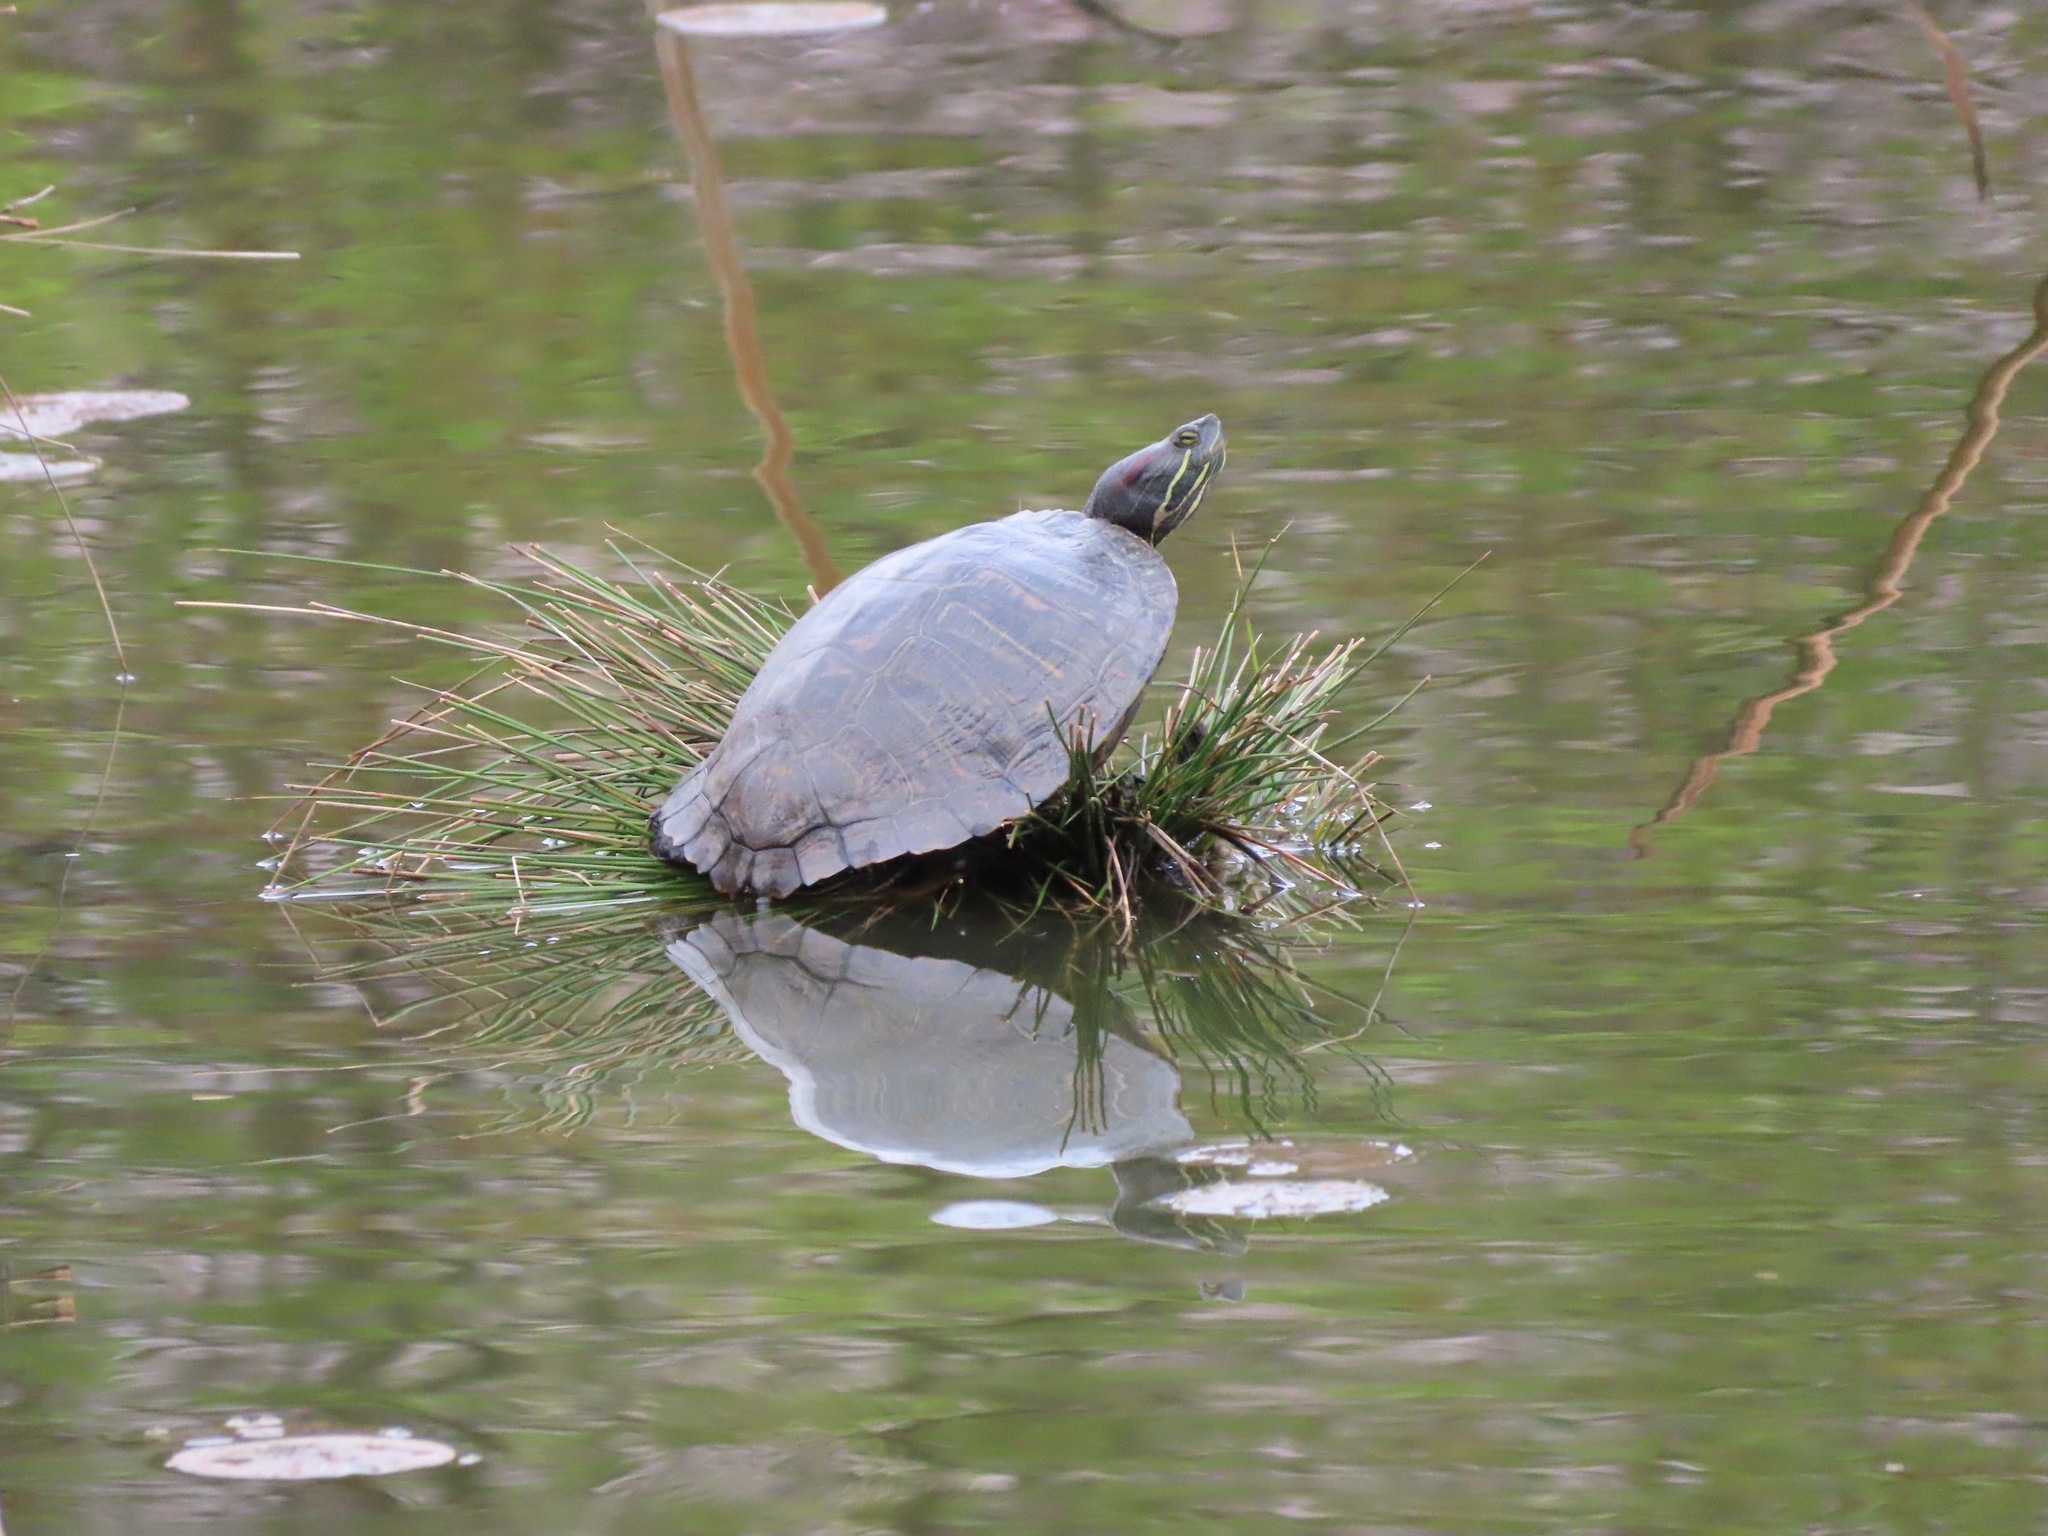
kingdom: Animalia
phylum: Chordata
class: Testudines
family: Emydidae
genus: Trachemys
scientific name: Trachemys scripta
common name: Slider
